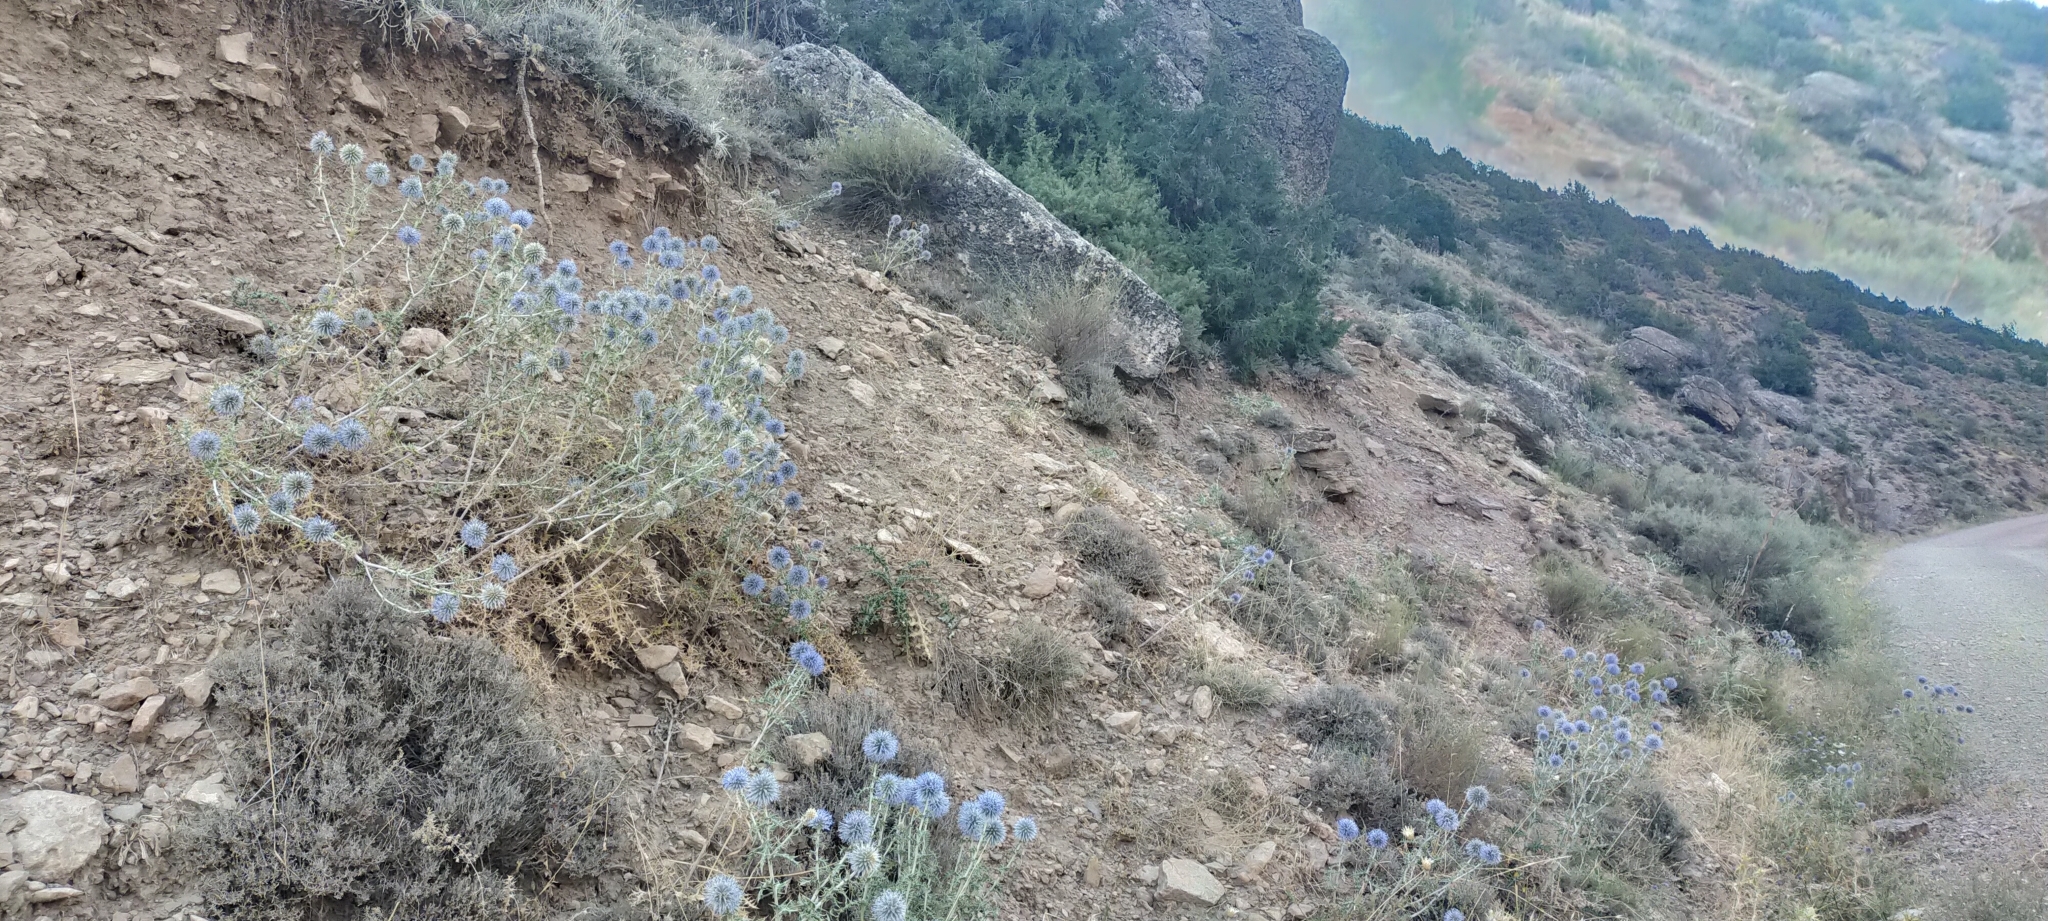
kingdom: Plantae
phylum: Tracheophyta
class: Magnoliopsida
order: Asterales
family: Asteraceae
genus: Echinops
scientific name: Echinops ritro
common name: Globe thistle
